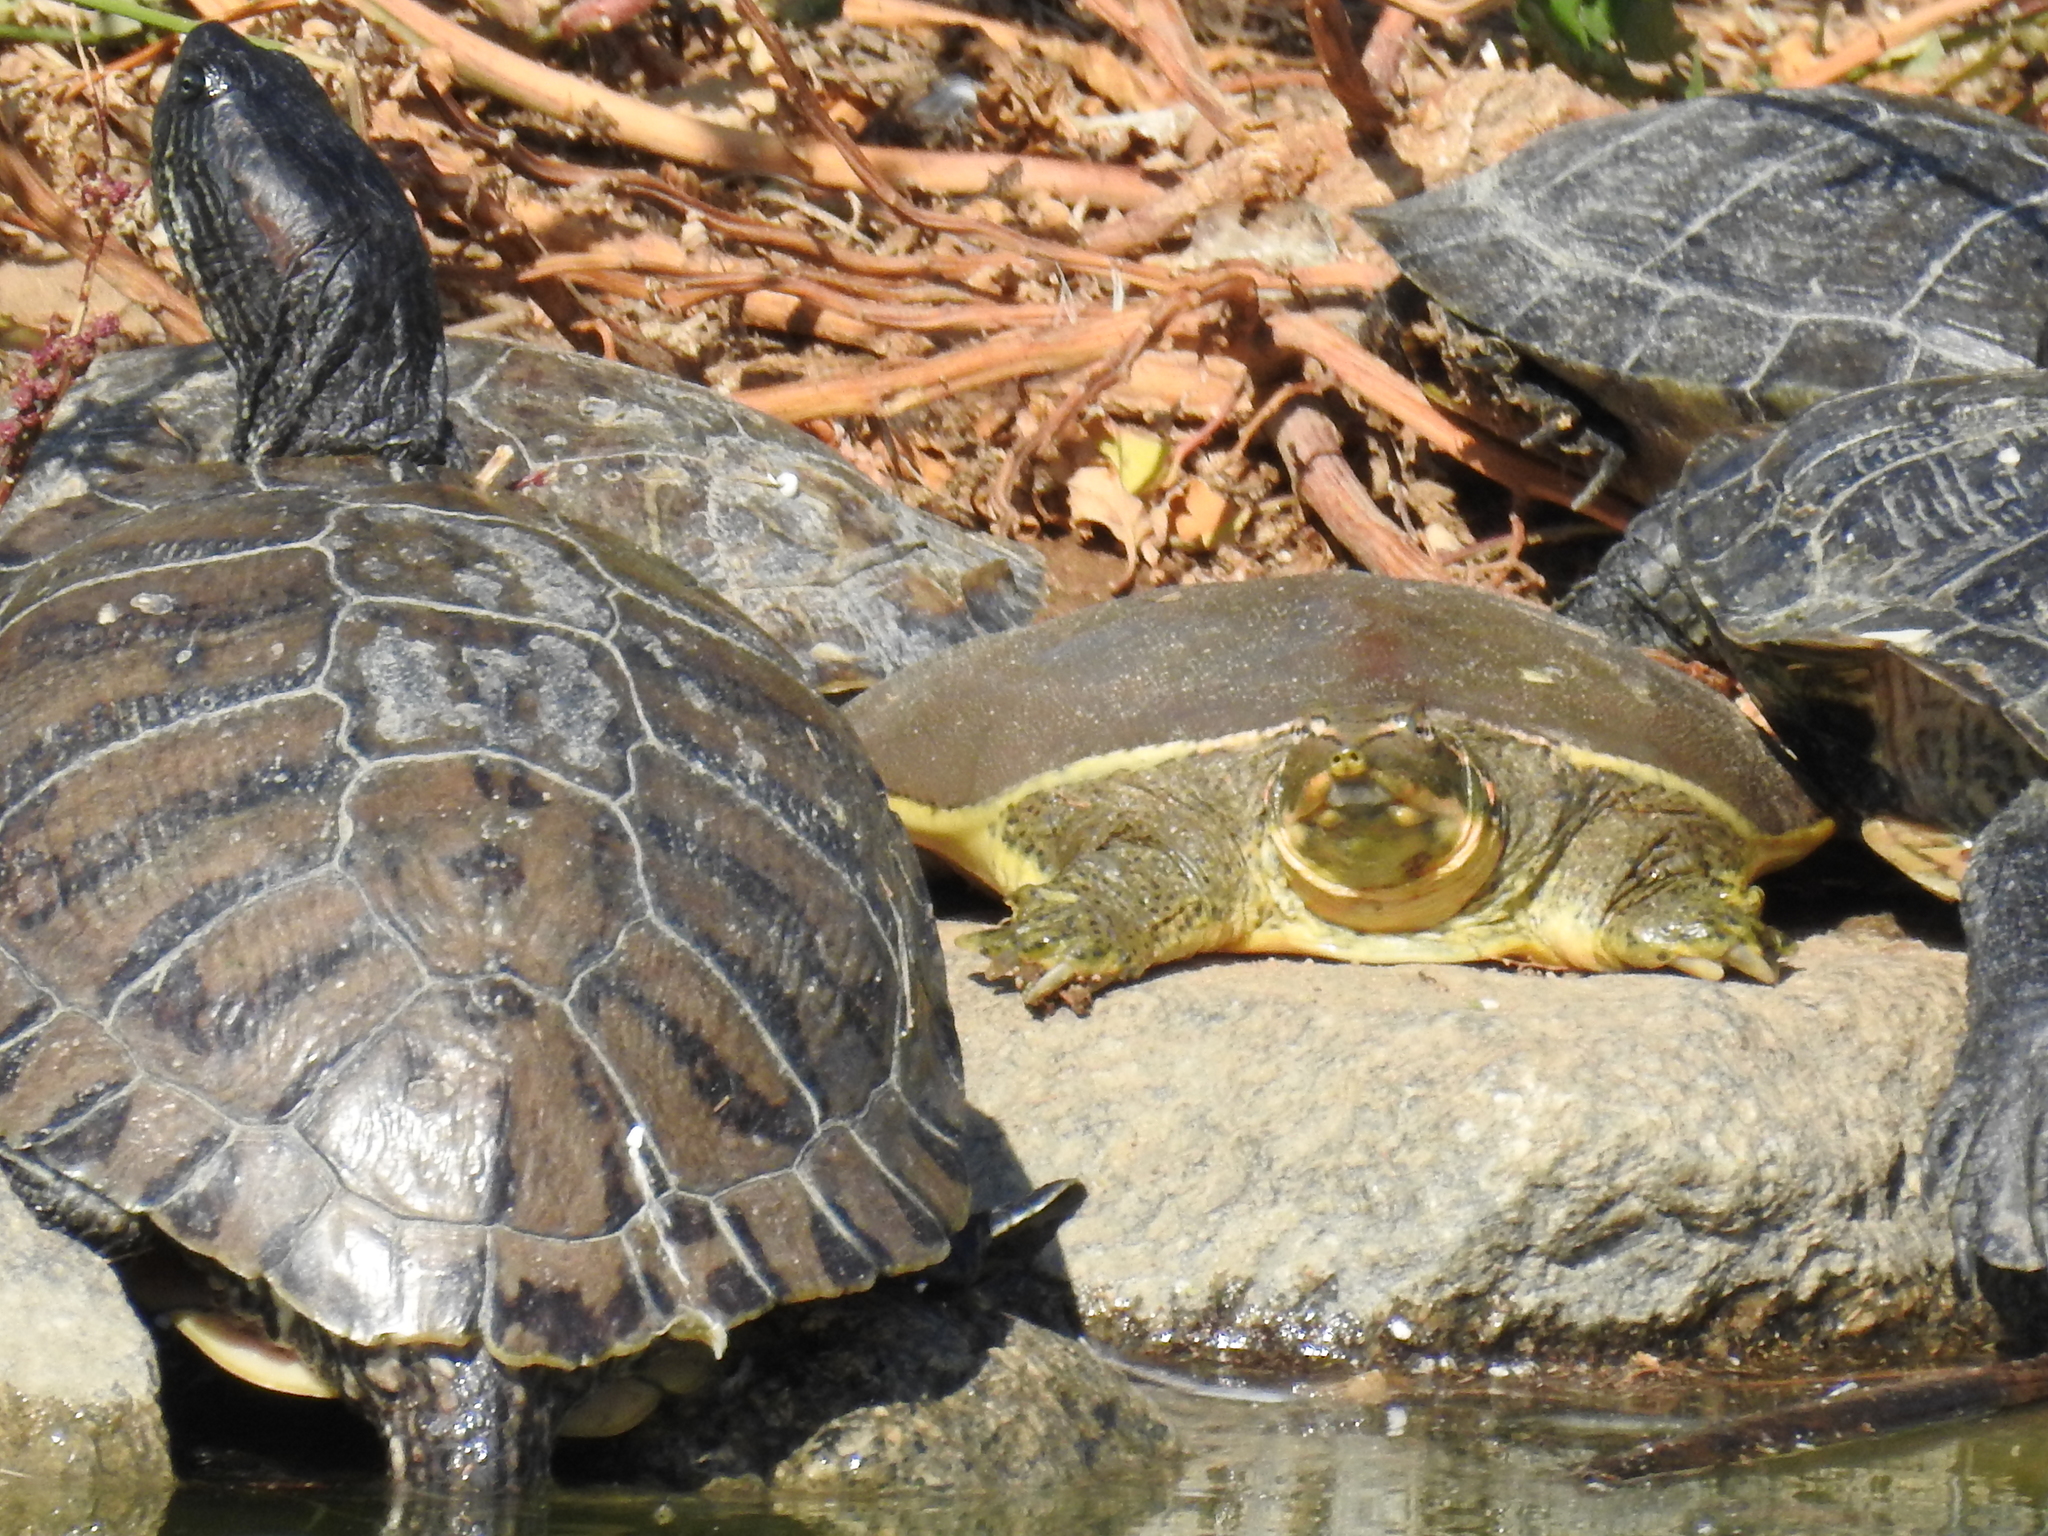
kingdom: Animalia
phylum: Chordata
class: Testudines
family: Trionychidae
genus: Apalone
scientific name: Apalone spinifera
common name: Spiny softshell turtle
